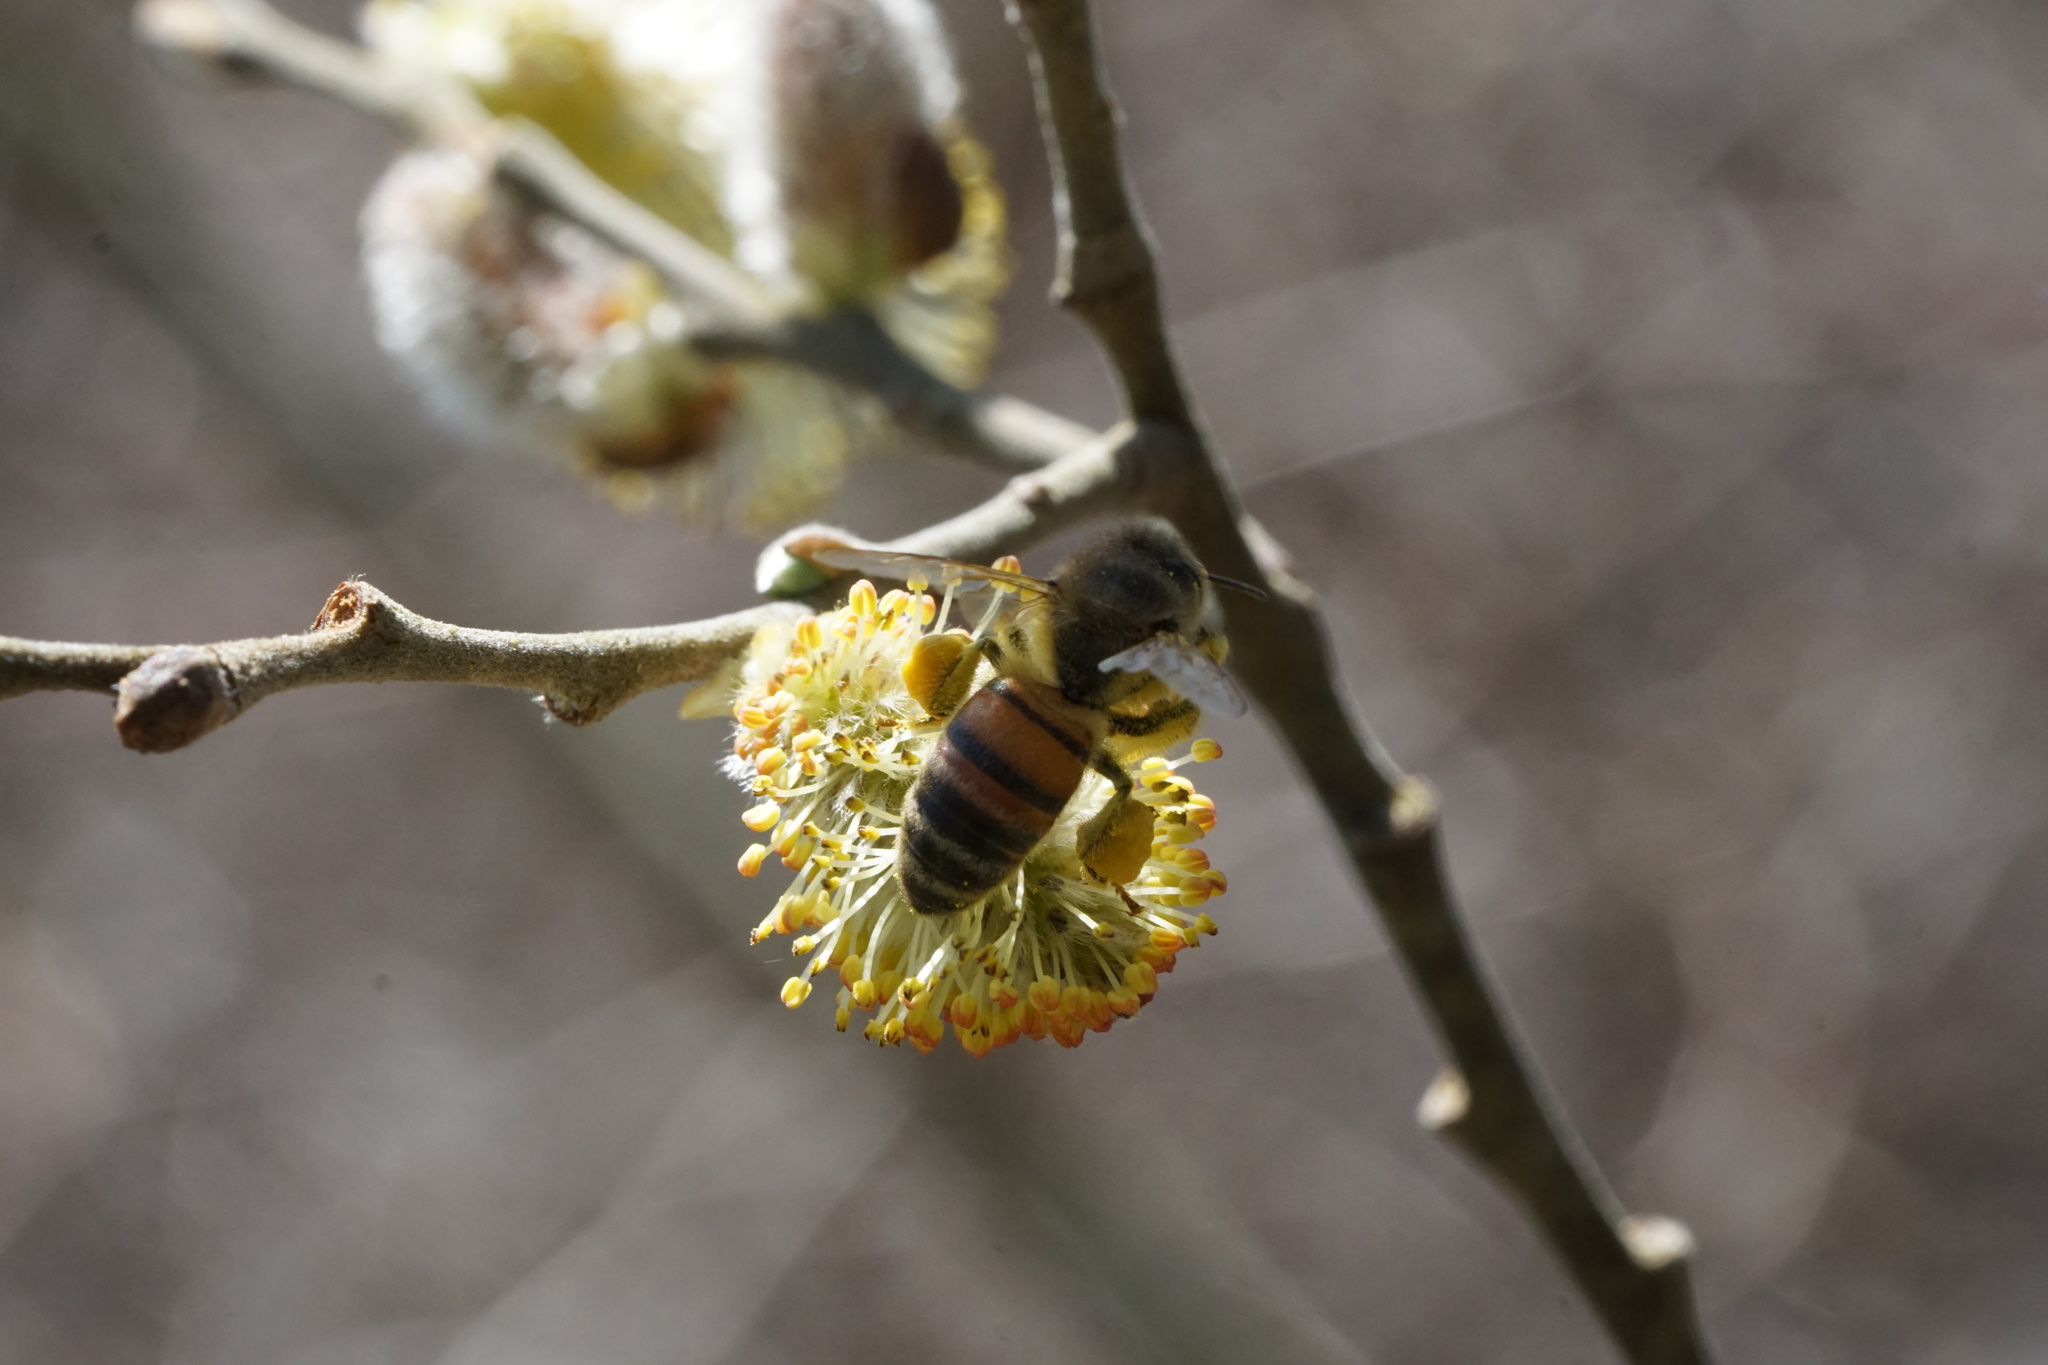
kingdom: Animalia
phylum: Arthropoda
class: Insecta
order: Hymenoptera
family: Apidae
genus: Apis
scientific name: Apis mellifera
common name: Honey bee
